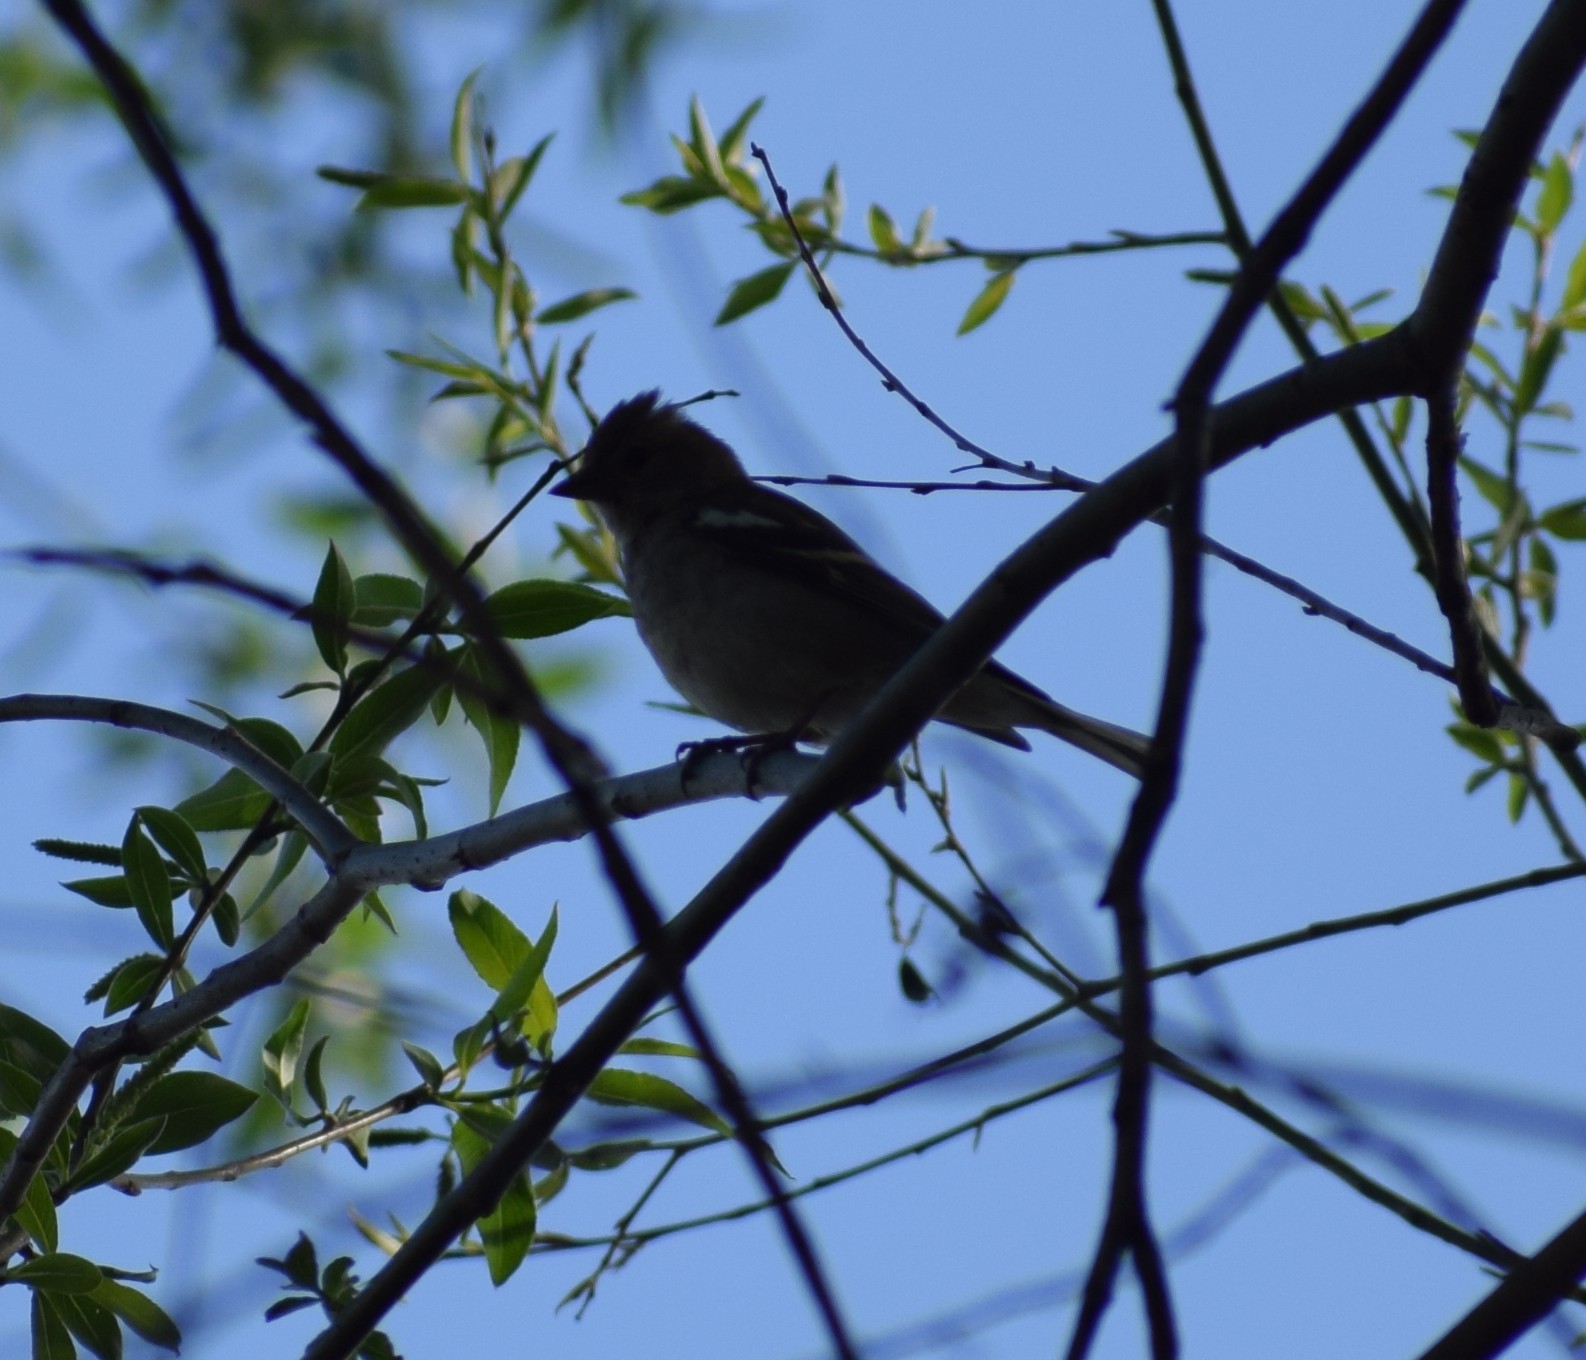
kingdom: Animalia
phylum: Chordata
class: Aves
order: Passeriformes
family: Fringillidae
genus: Fringilla
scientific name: Fringilla coelebs
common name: Common chaffinch
